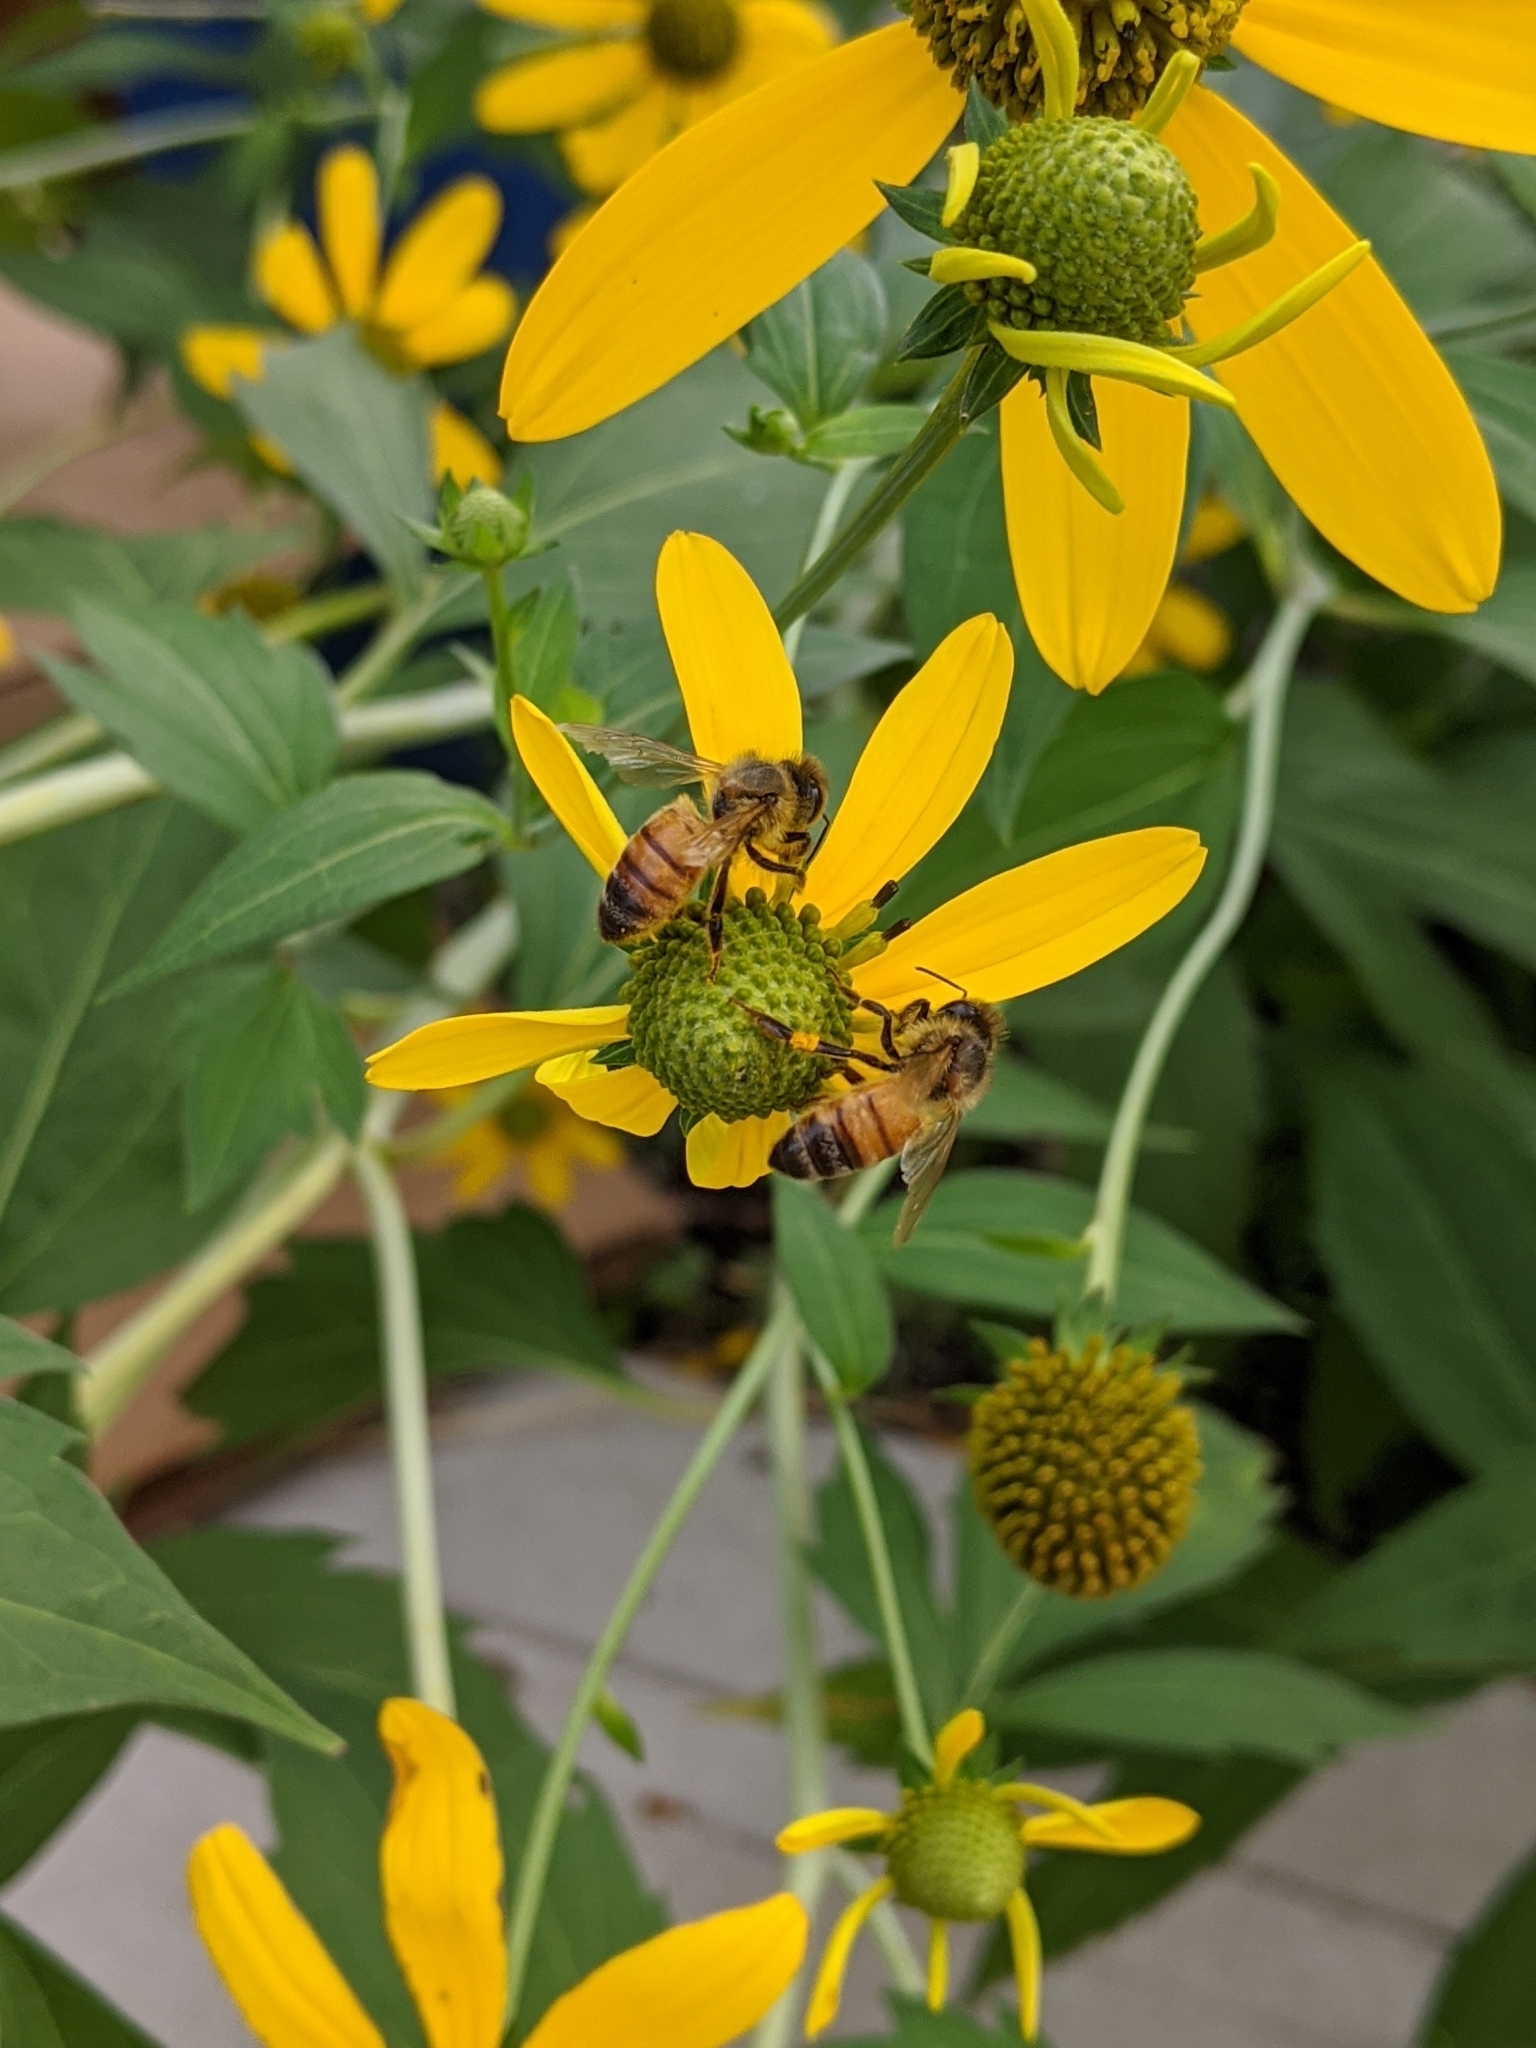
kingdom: Animalia
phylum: Arthropoda
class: Insecta
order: Hymenoptera
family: Apidae
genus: Apis
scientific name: Apis mellifera
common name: Honey bee
